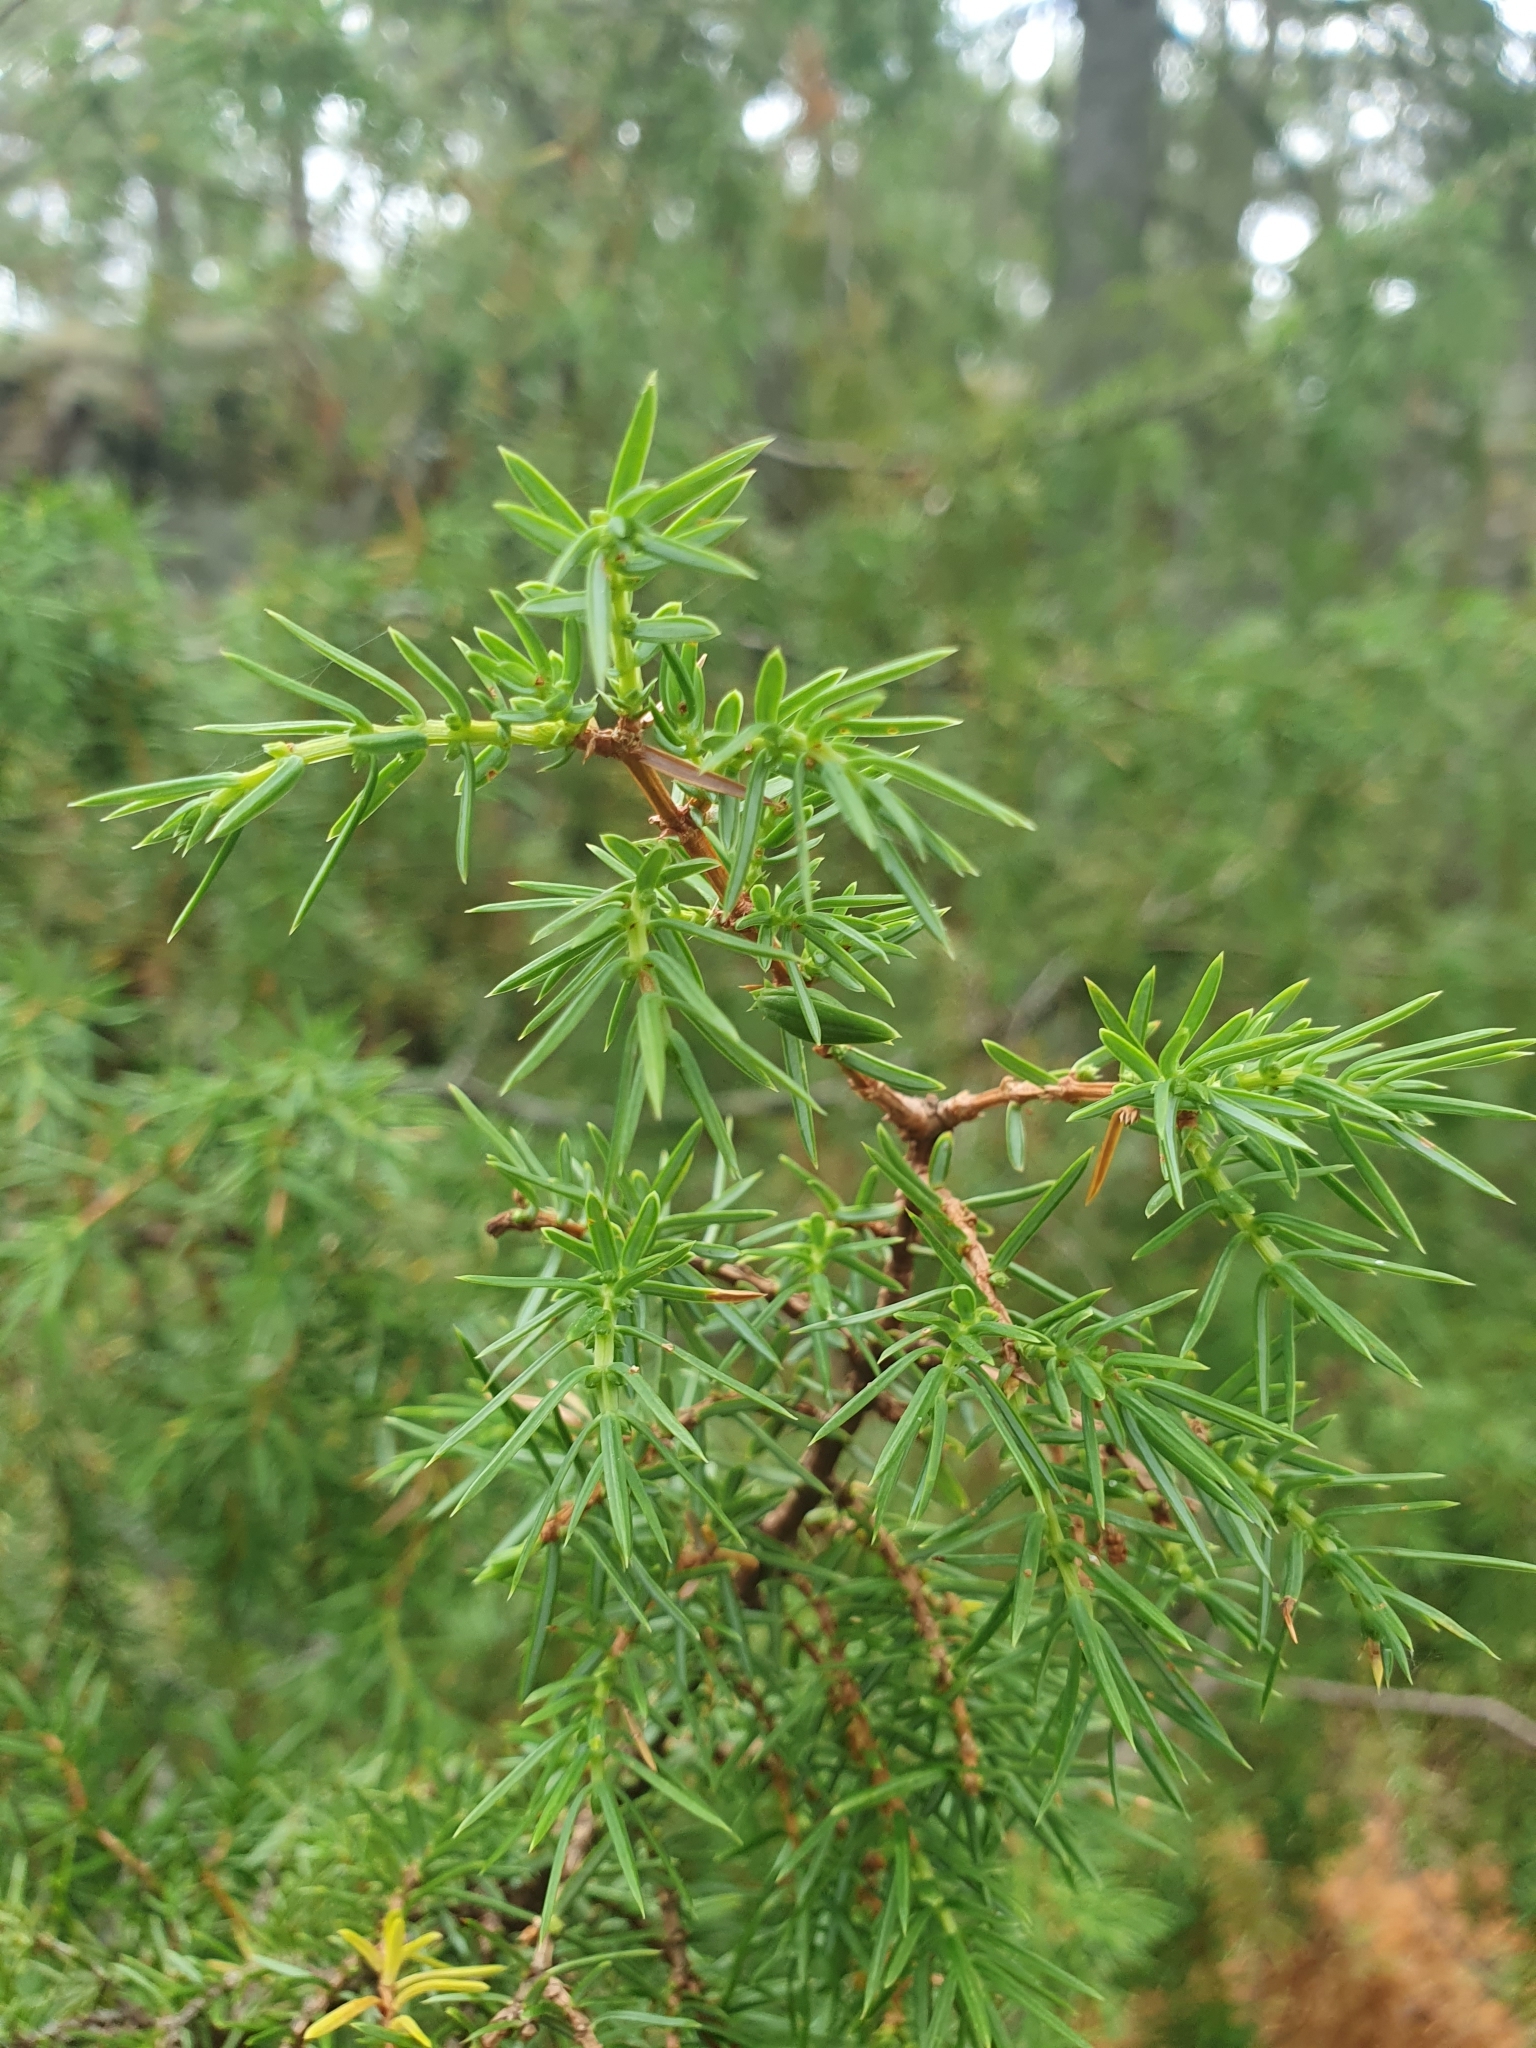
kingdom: Plantae
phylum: Tracheophyta
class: Pinopsida
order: Pinales
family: Cupressaceae
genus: Juniperus
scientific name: Juniperus communis
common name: Common juniper
